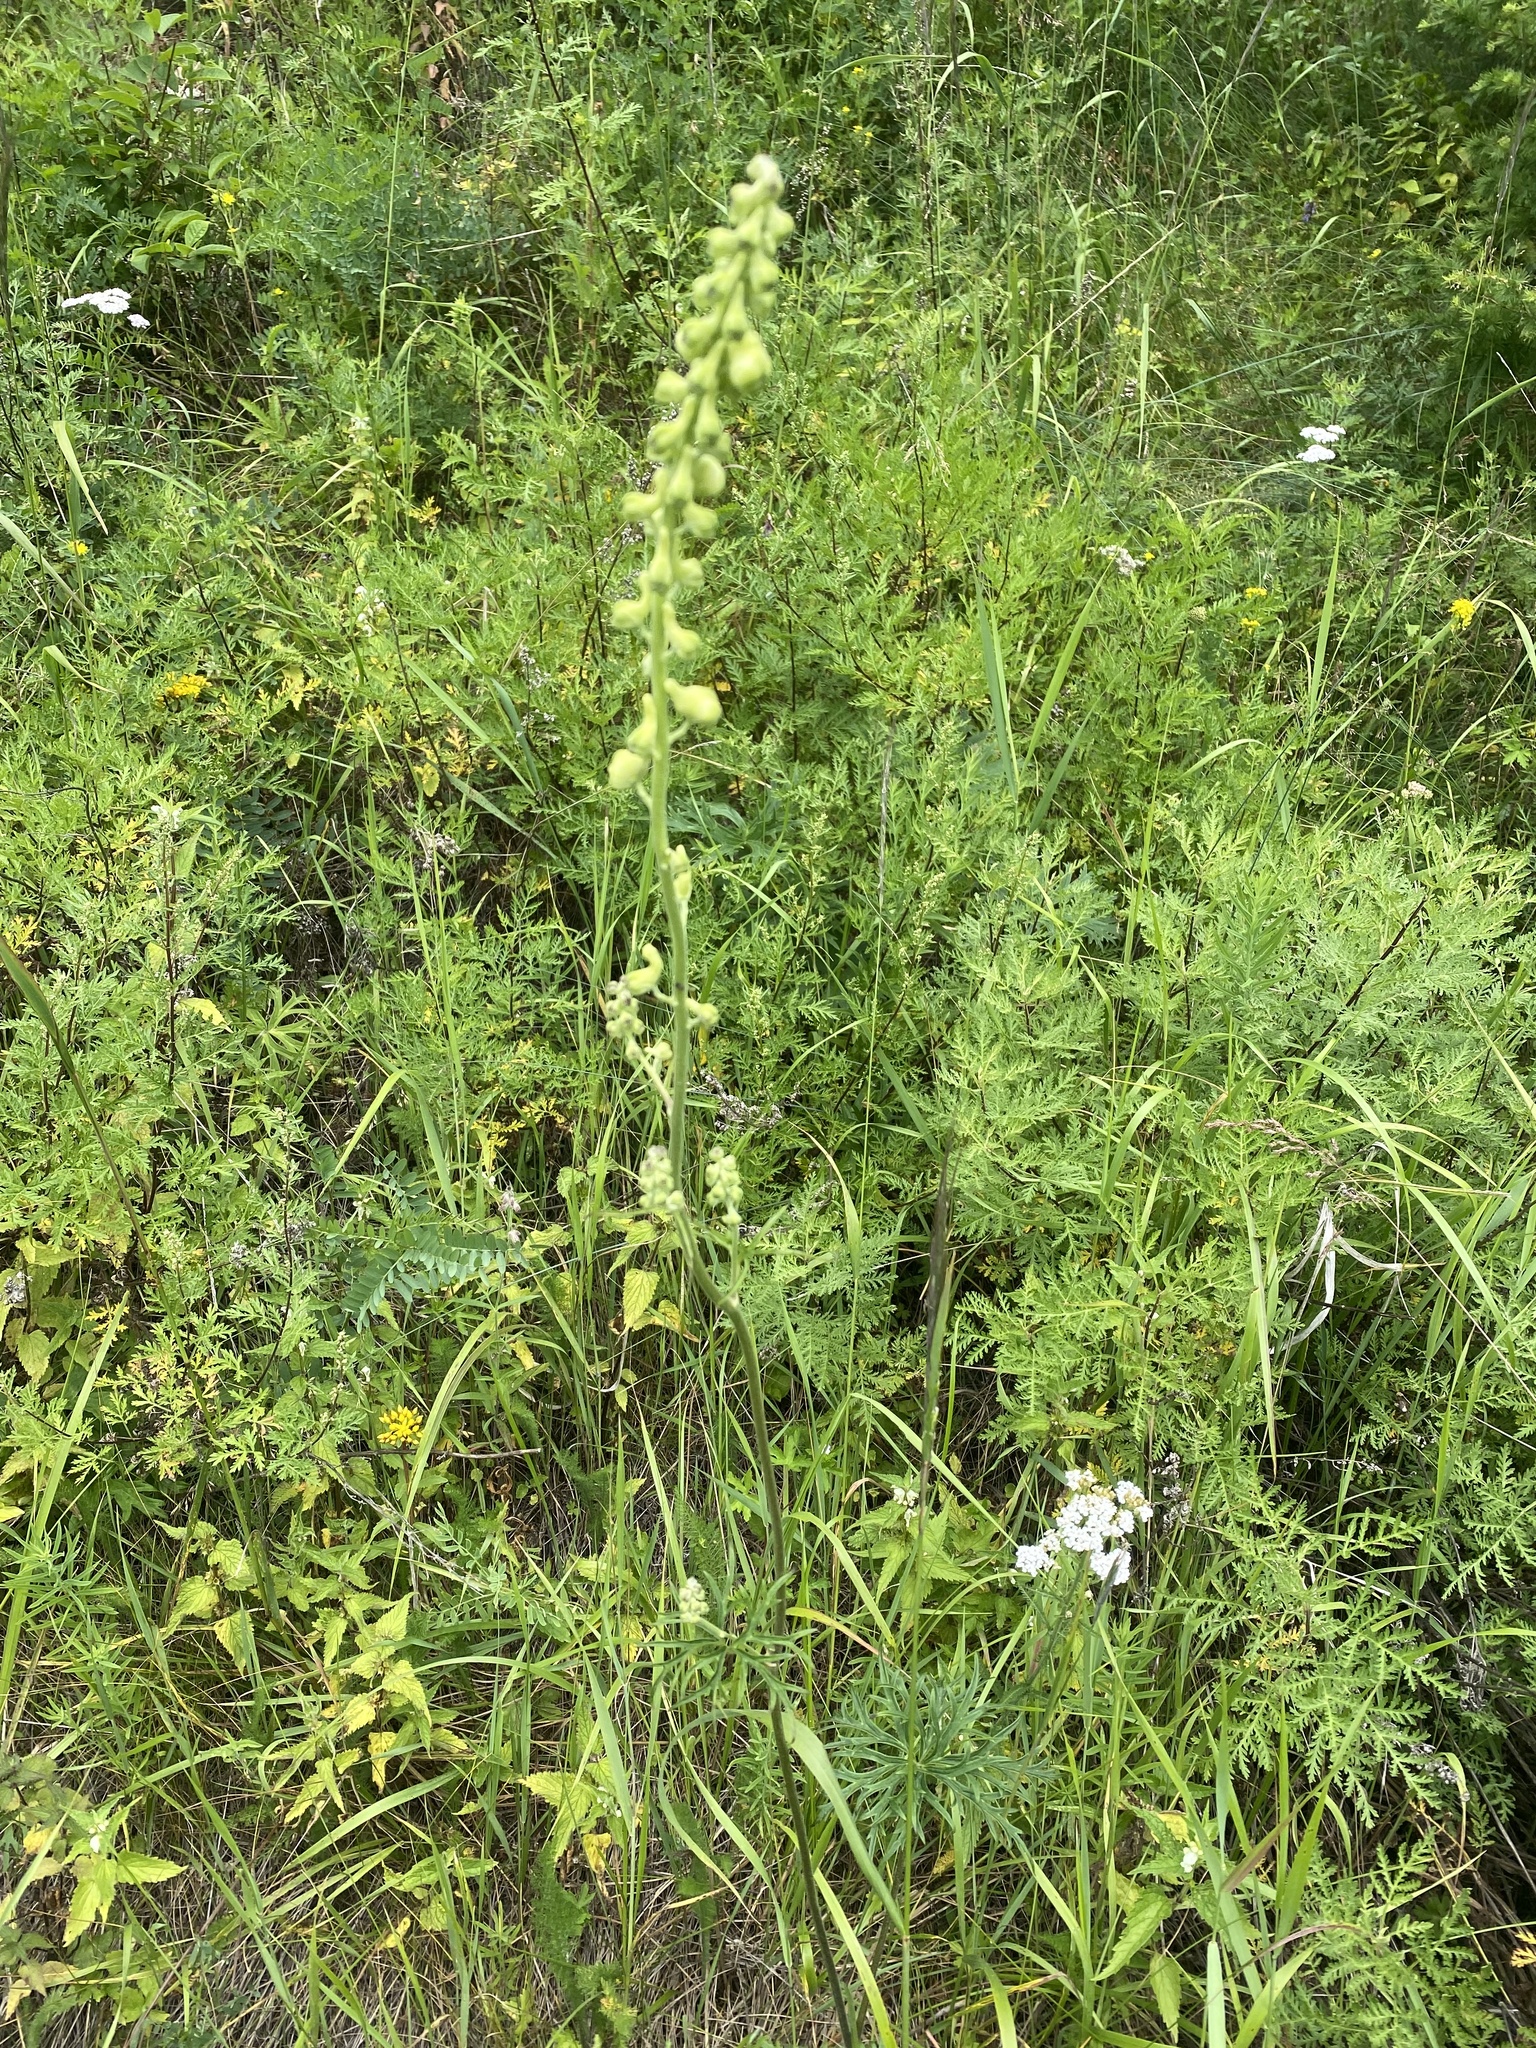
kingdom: Plantae
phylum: Tracheophyta
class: Magnoliopsida
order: Ranunculales
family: Ranunculaceae
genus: Aconitum
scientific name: Aconitum barbatum
